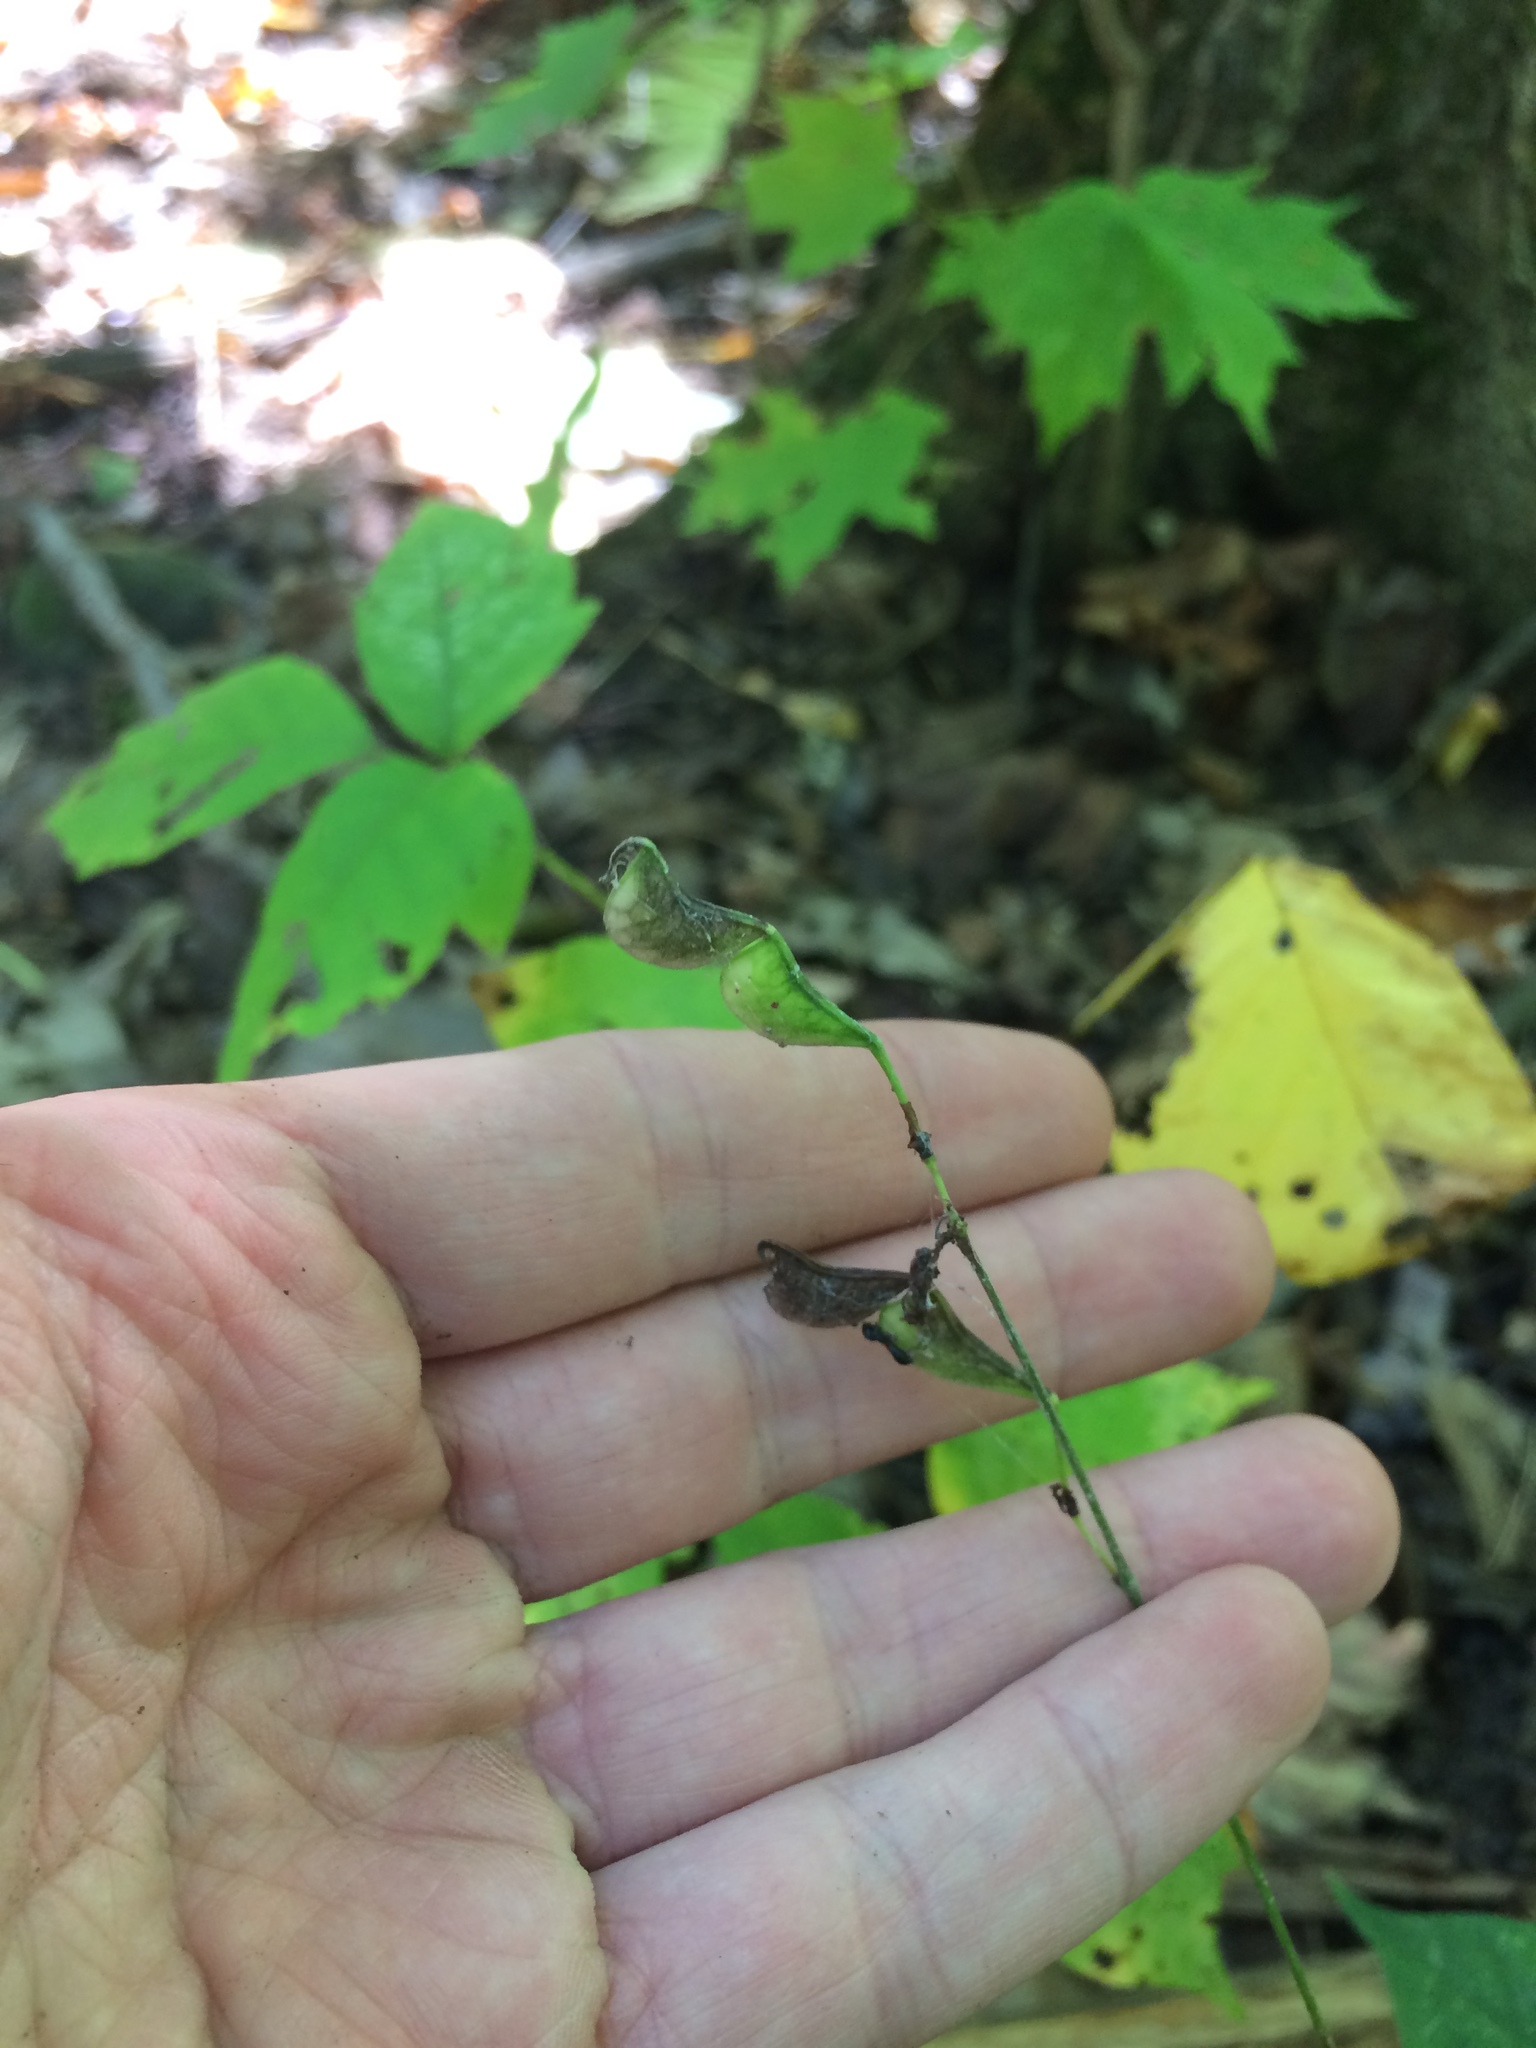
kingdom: Plantae
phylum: Tracheophyta
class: Magnoliopsida
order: Fabales
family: Fabaceae
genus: Hylodesmum
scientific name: Hylodesmum glutinosum
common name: Clustered-leaved tick-trefoil
